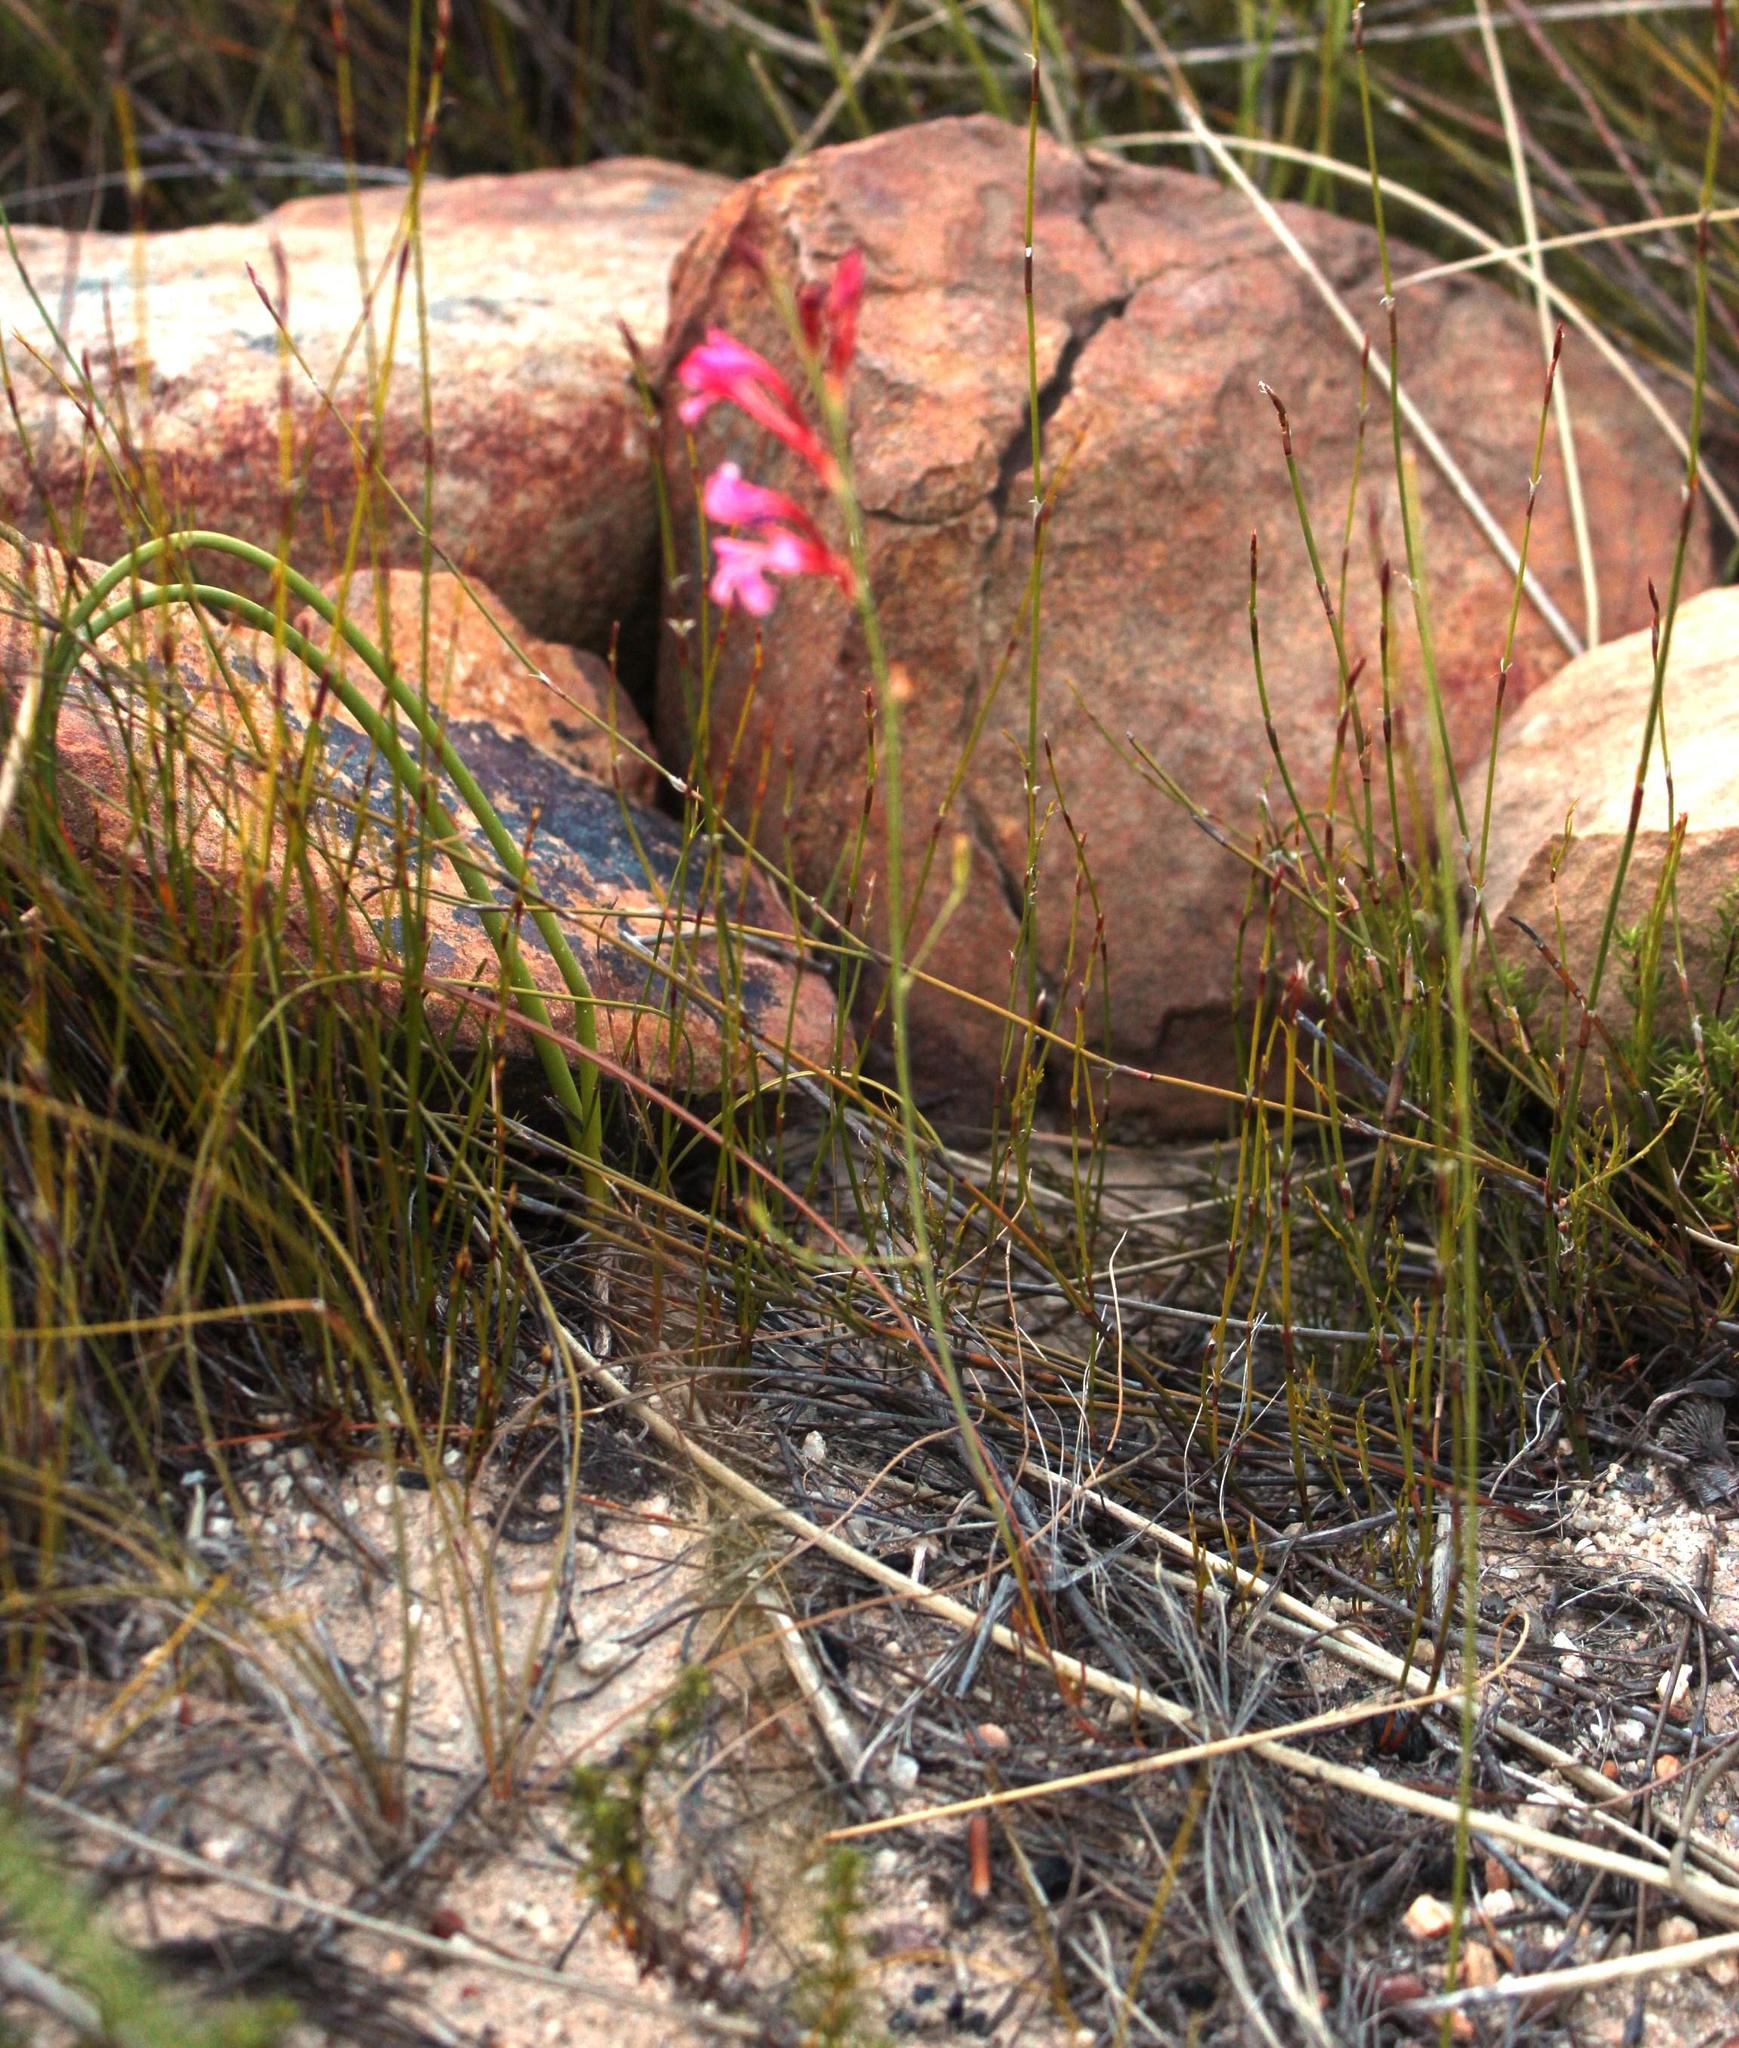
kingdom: Plantae
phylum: Tracheophyta
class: Liliopsida
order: Asparagales
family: Iridaceae
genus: Tritoniopsis
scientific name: Tritoniopsis ramosa
